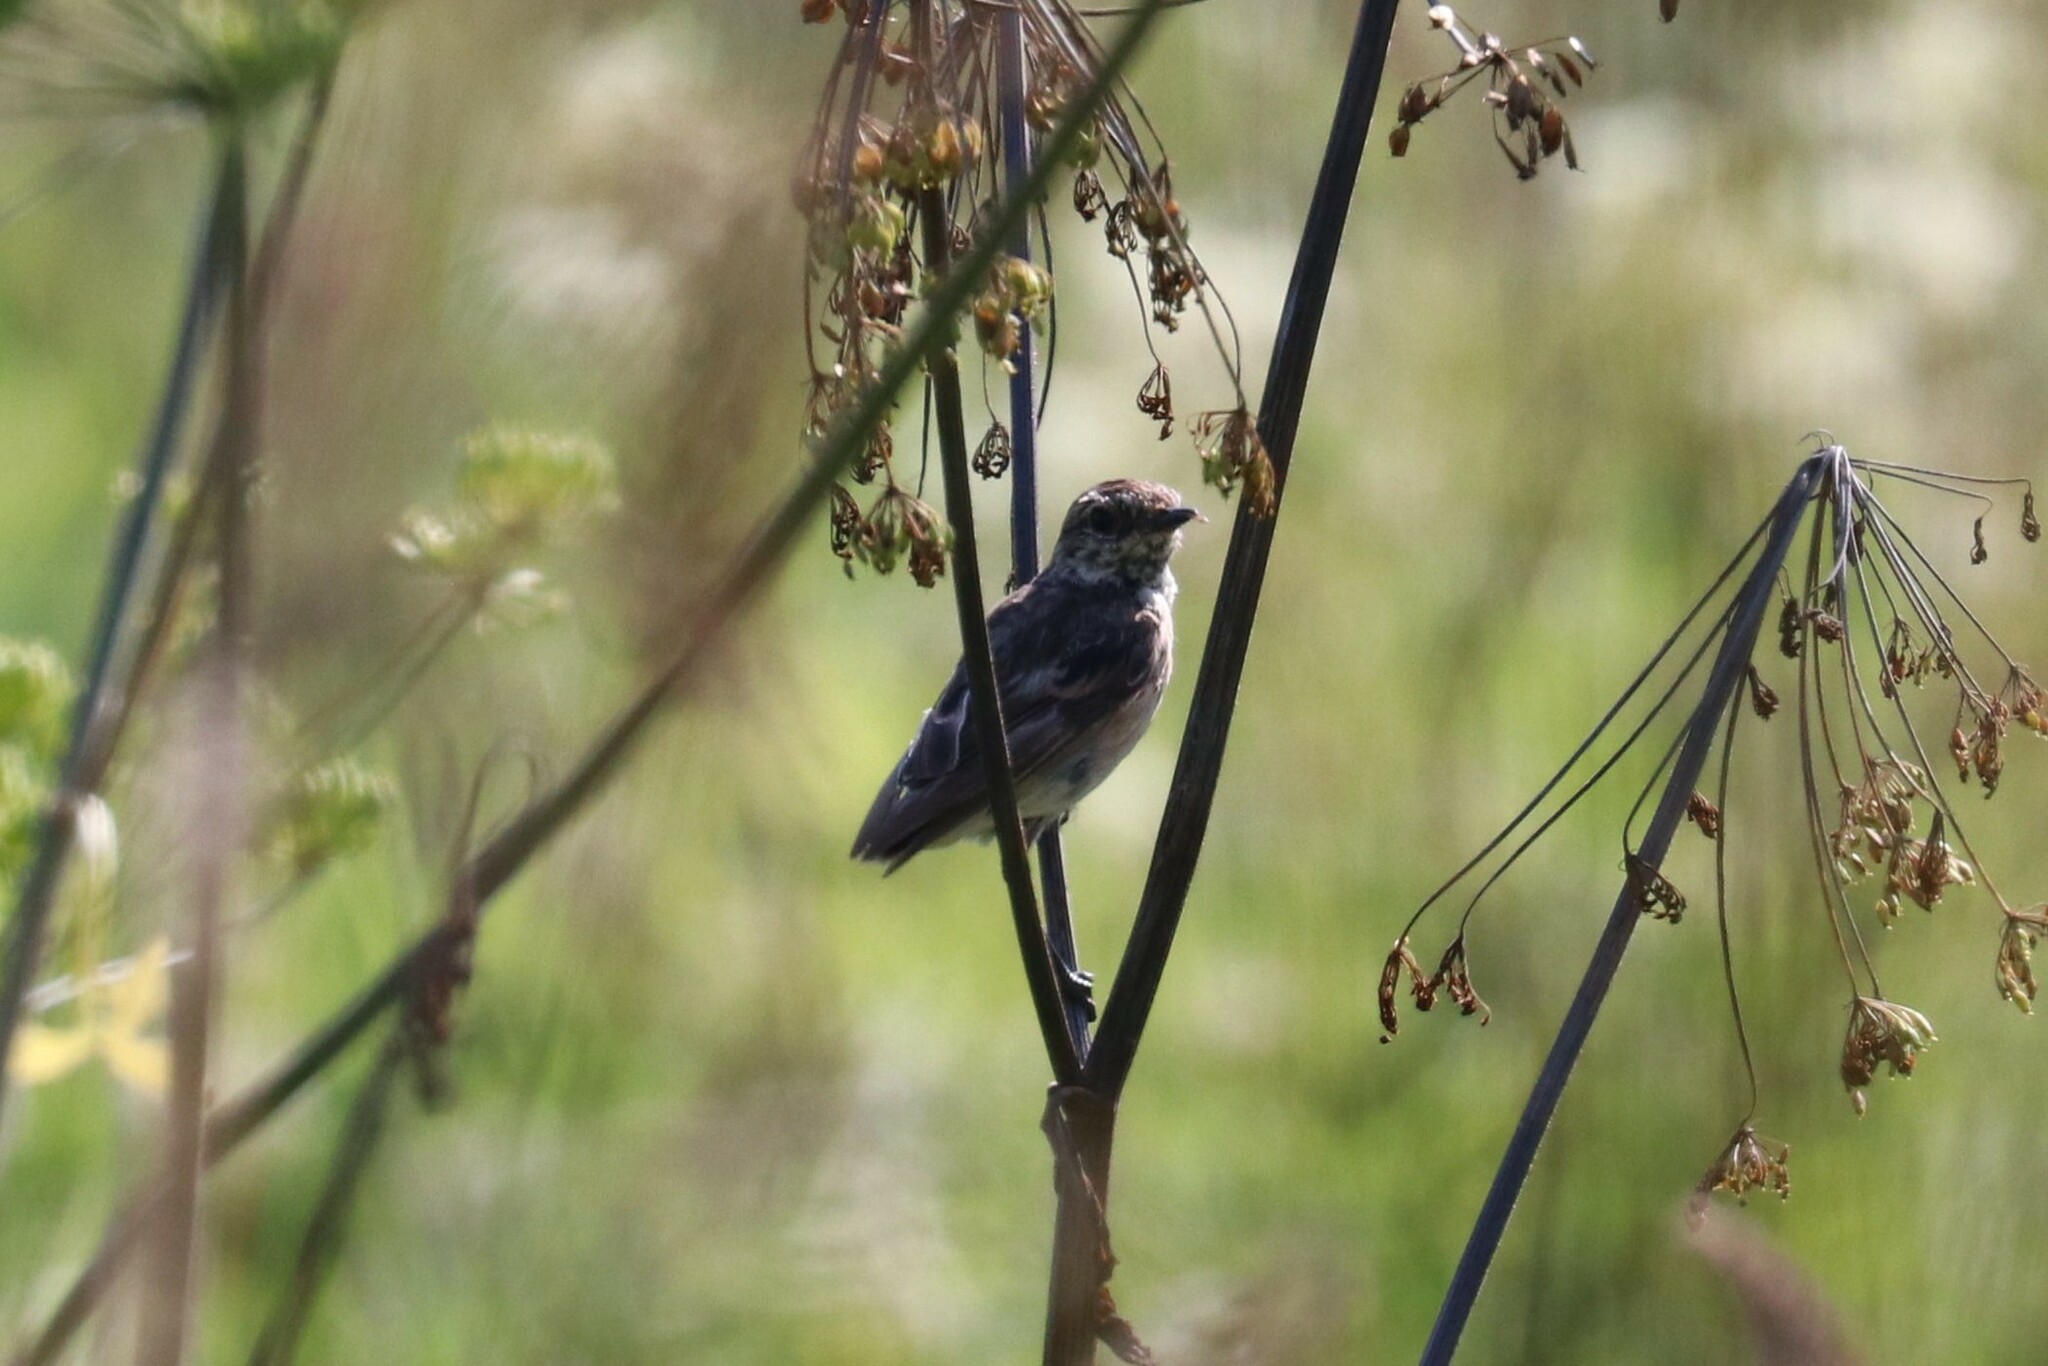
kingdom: Animalia
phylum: Chordata
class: Aves
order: Passeriformes
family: Muscicapidae
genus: Saxicola
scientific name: Saxicola maurus
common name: Siberian stonechat
